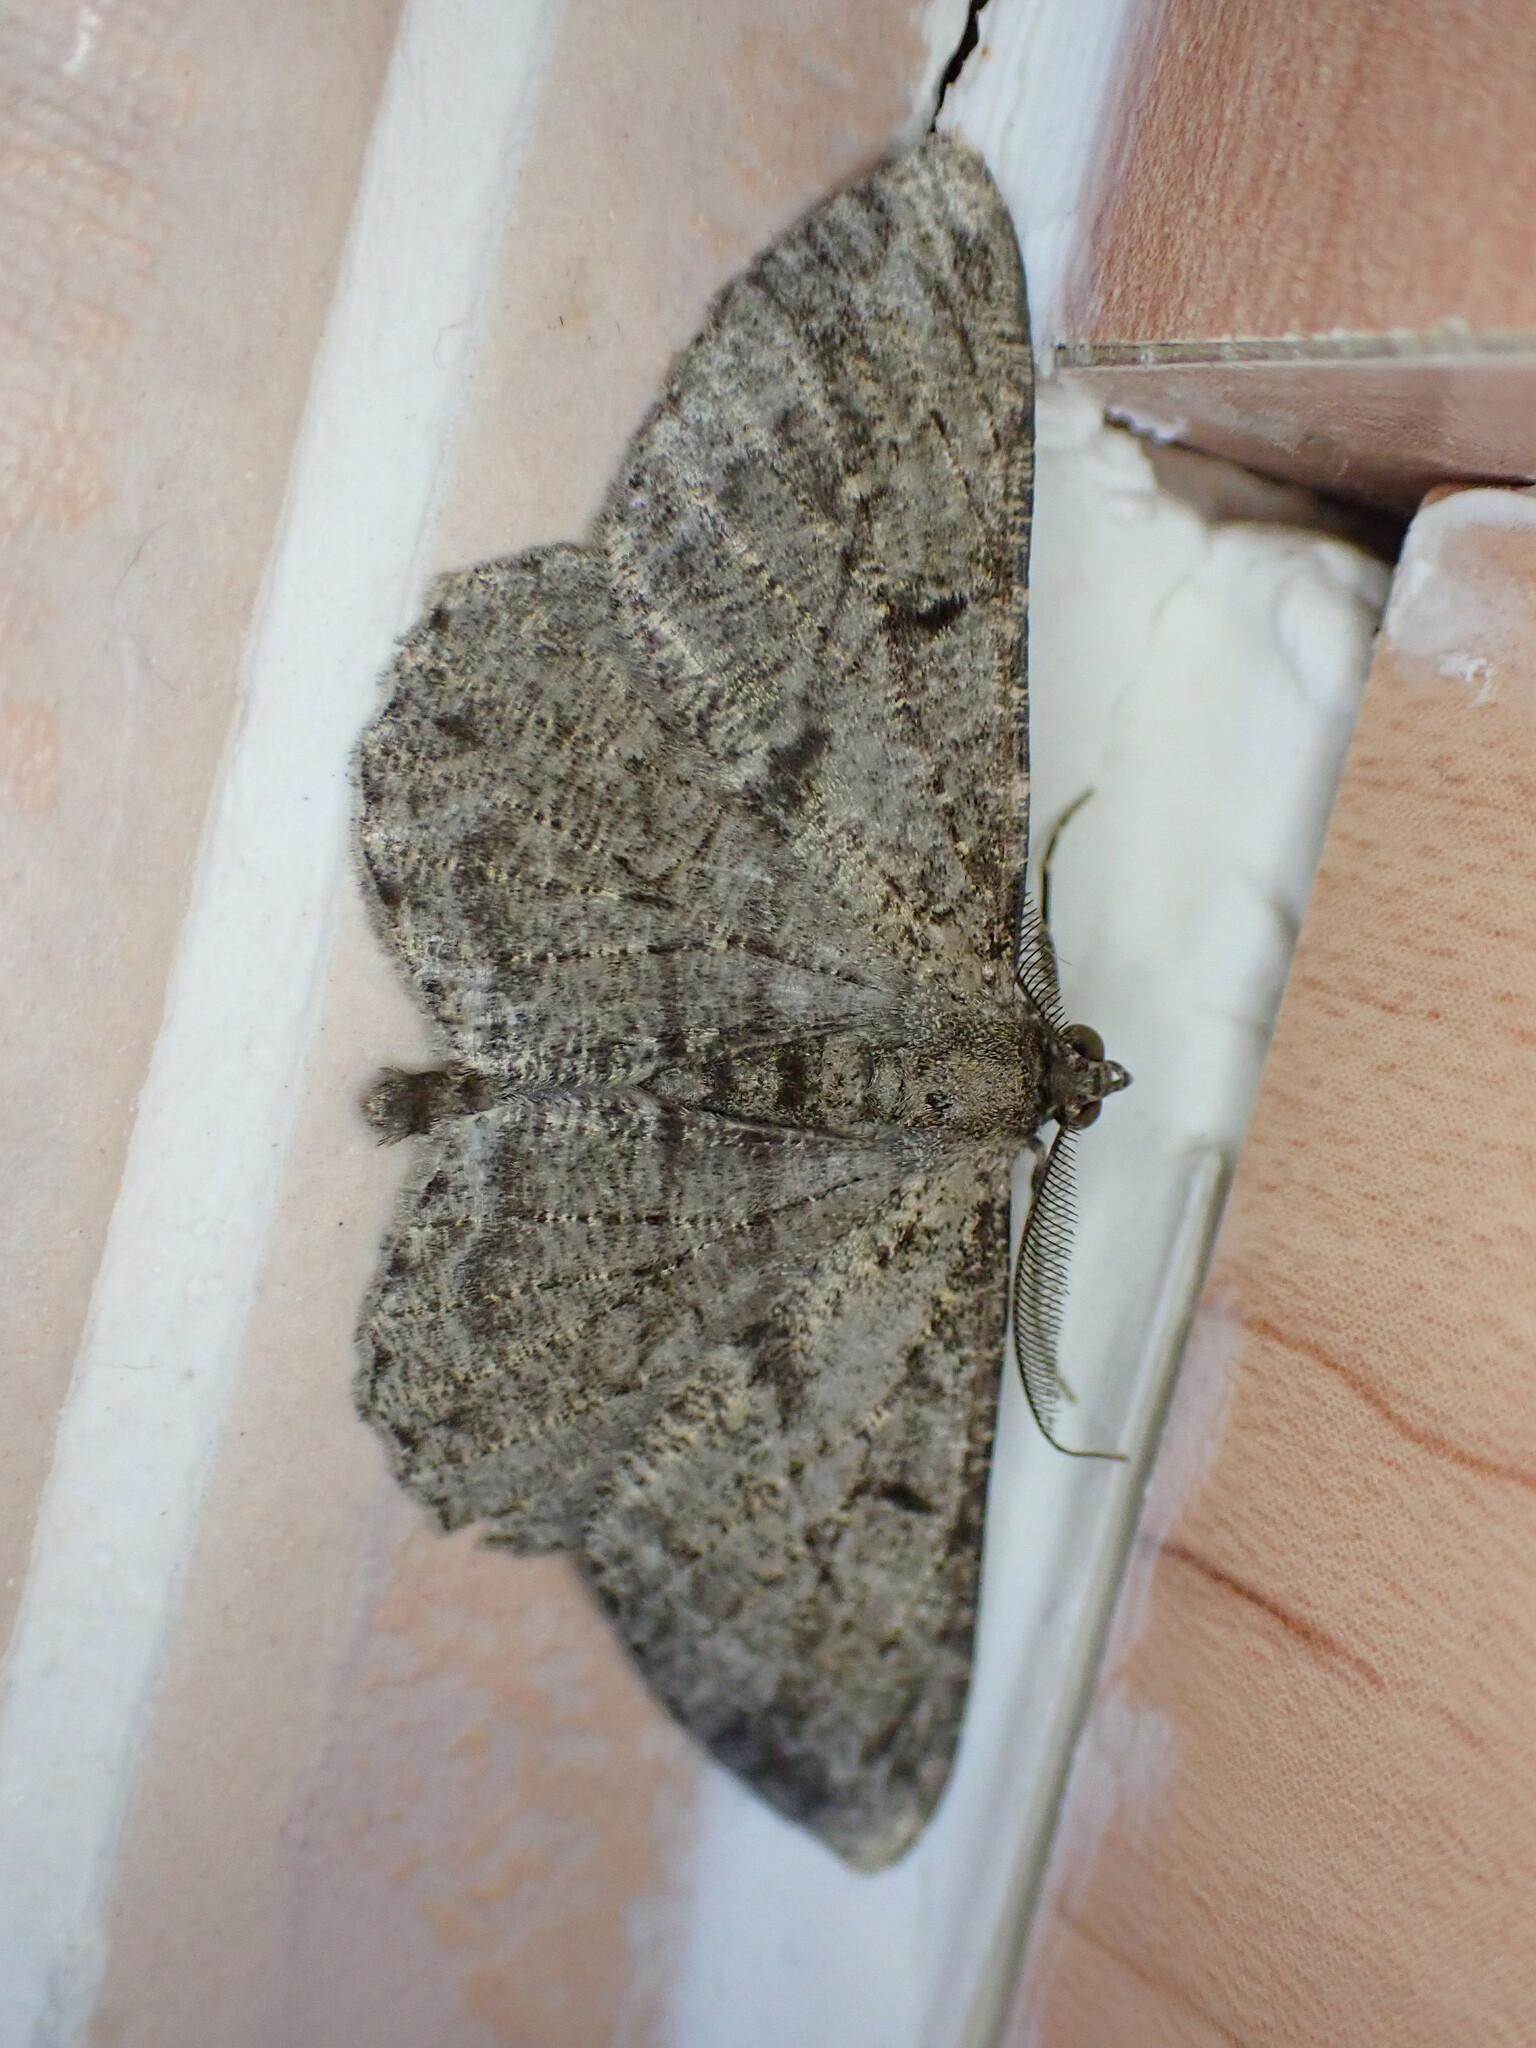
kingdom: Animalia
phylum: Arthropoda
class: Insecta
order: Lepidoptera
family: Geometridae
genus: Peribatodes
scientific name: Peribatodes rhomboidaria
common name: Willow beauty
